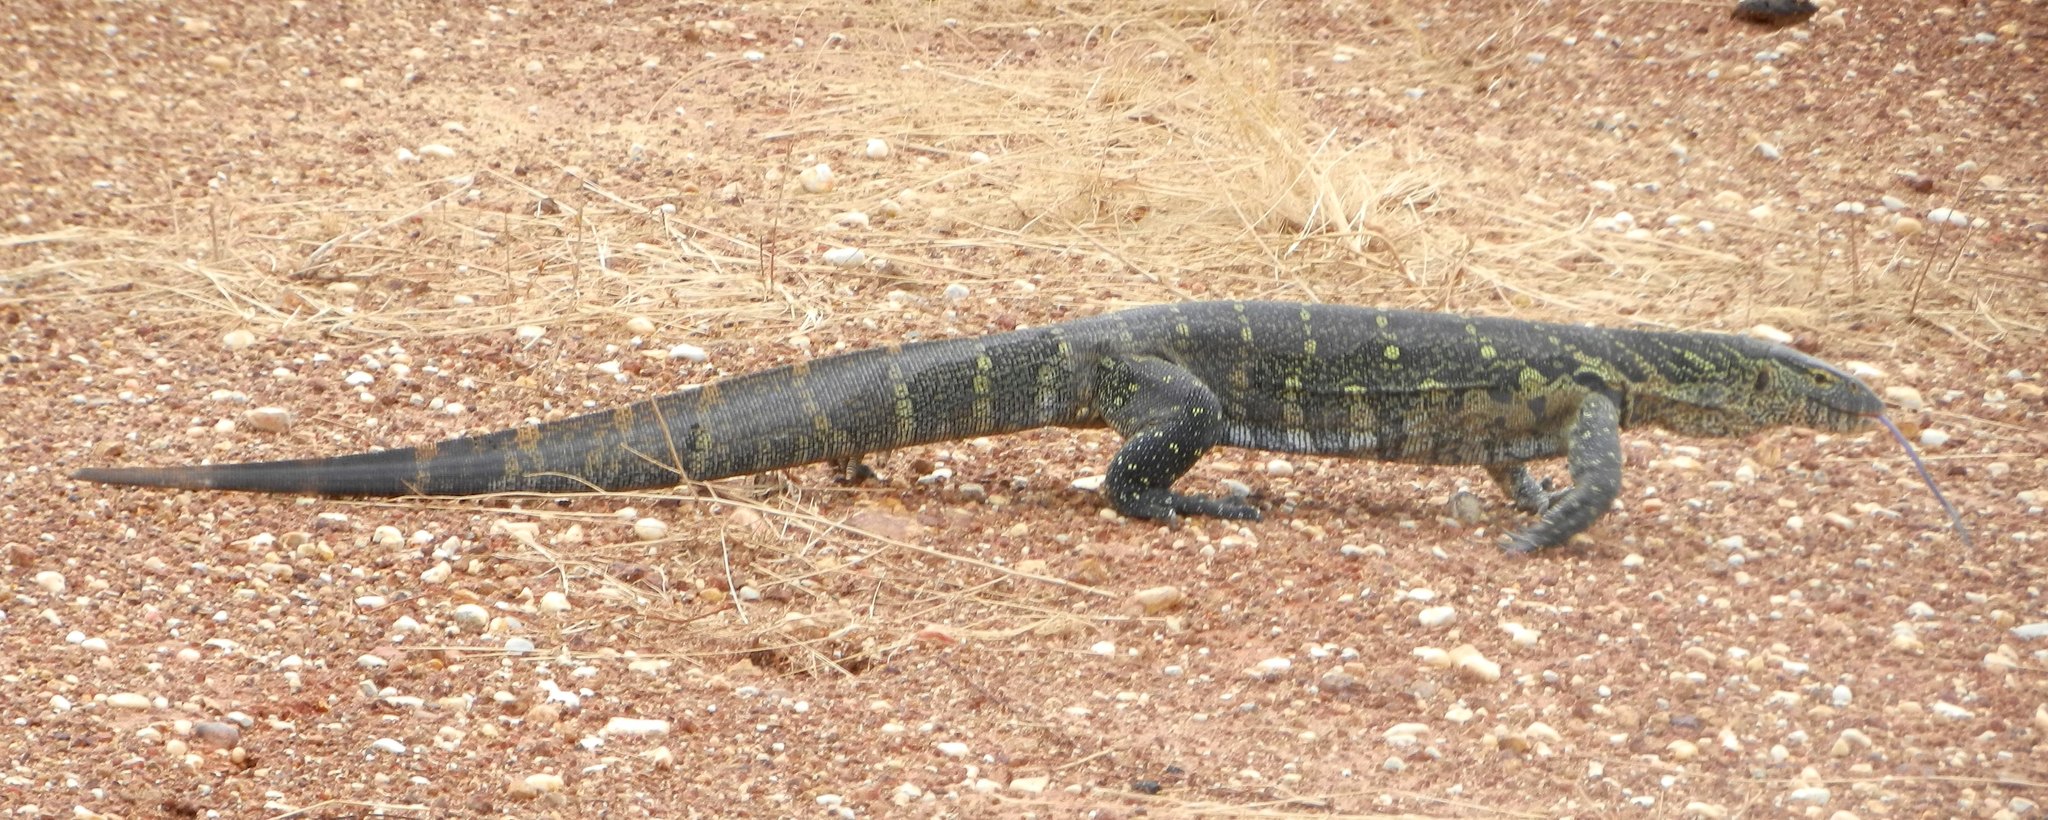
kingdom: Animalia
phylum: Chordata
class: Squamata
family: Varanidae
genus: Varanus
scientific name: Varanus niloticus
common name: Nile monitor
